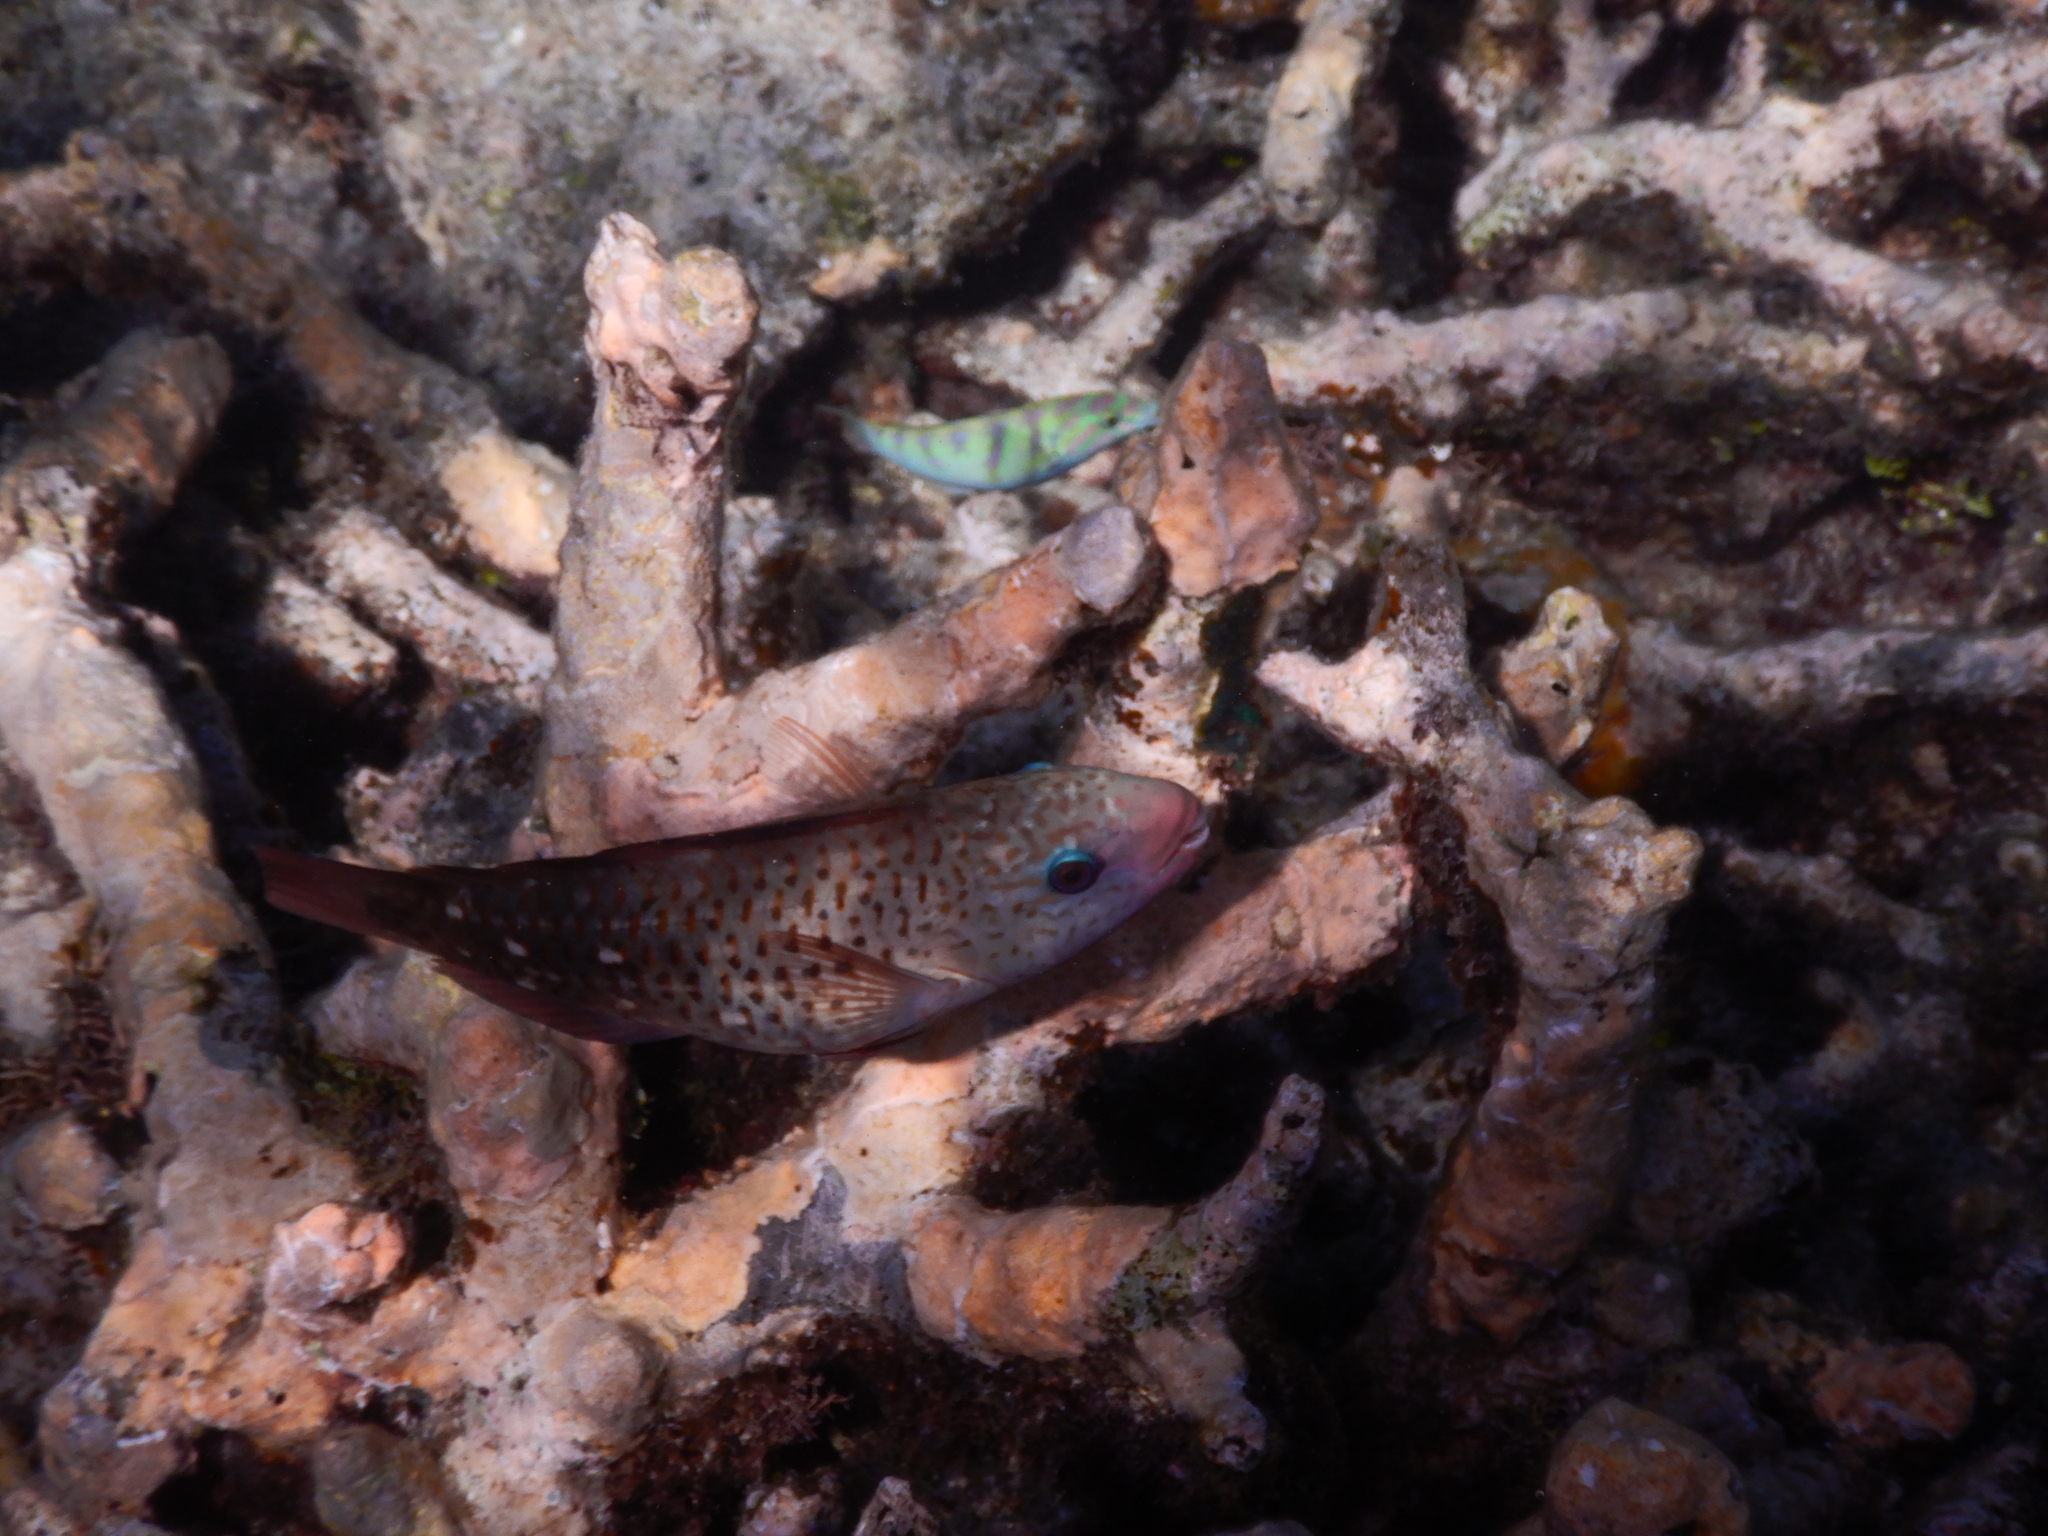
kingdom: Animalia
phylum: Chordata
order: Perciformes
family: Scaridae
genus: Chlorurus
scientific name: Chlorurus spilurus
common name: Bullethead parrotfish
